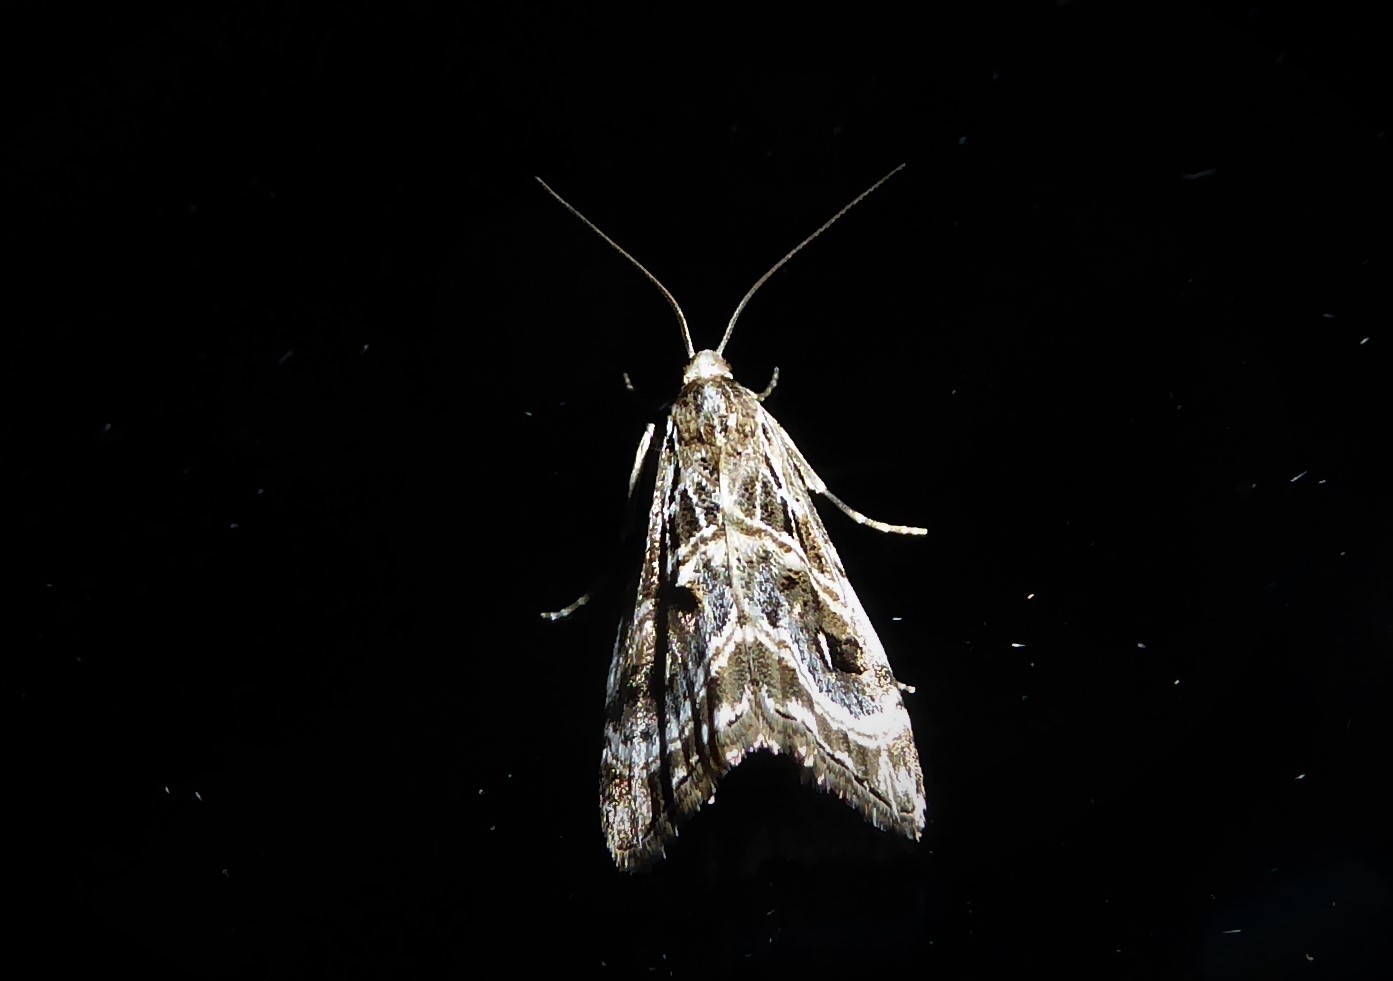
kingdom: Animalia
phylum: Arthropoda
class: Insecta
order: Lepidoptera
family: Crambidae
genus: Gadira
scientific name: Gadira acerella
